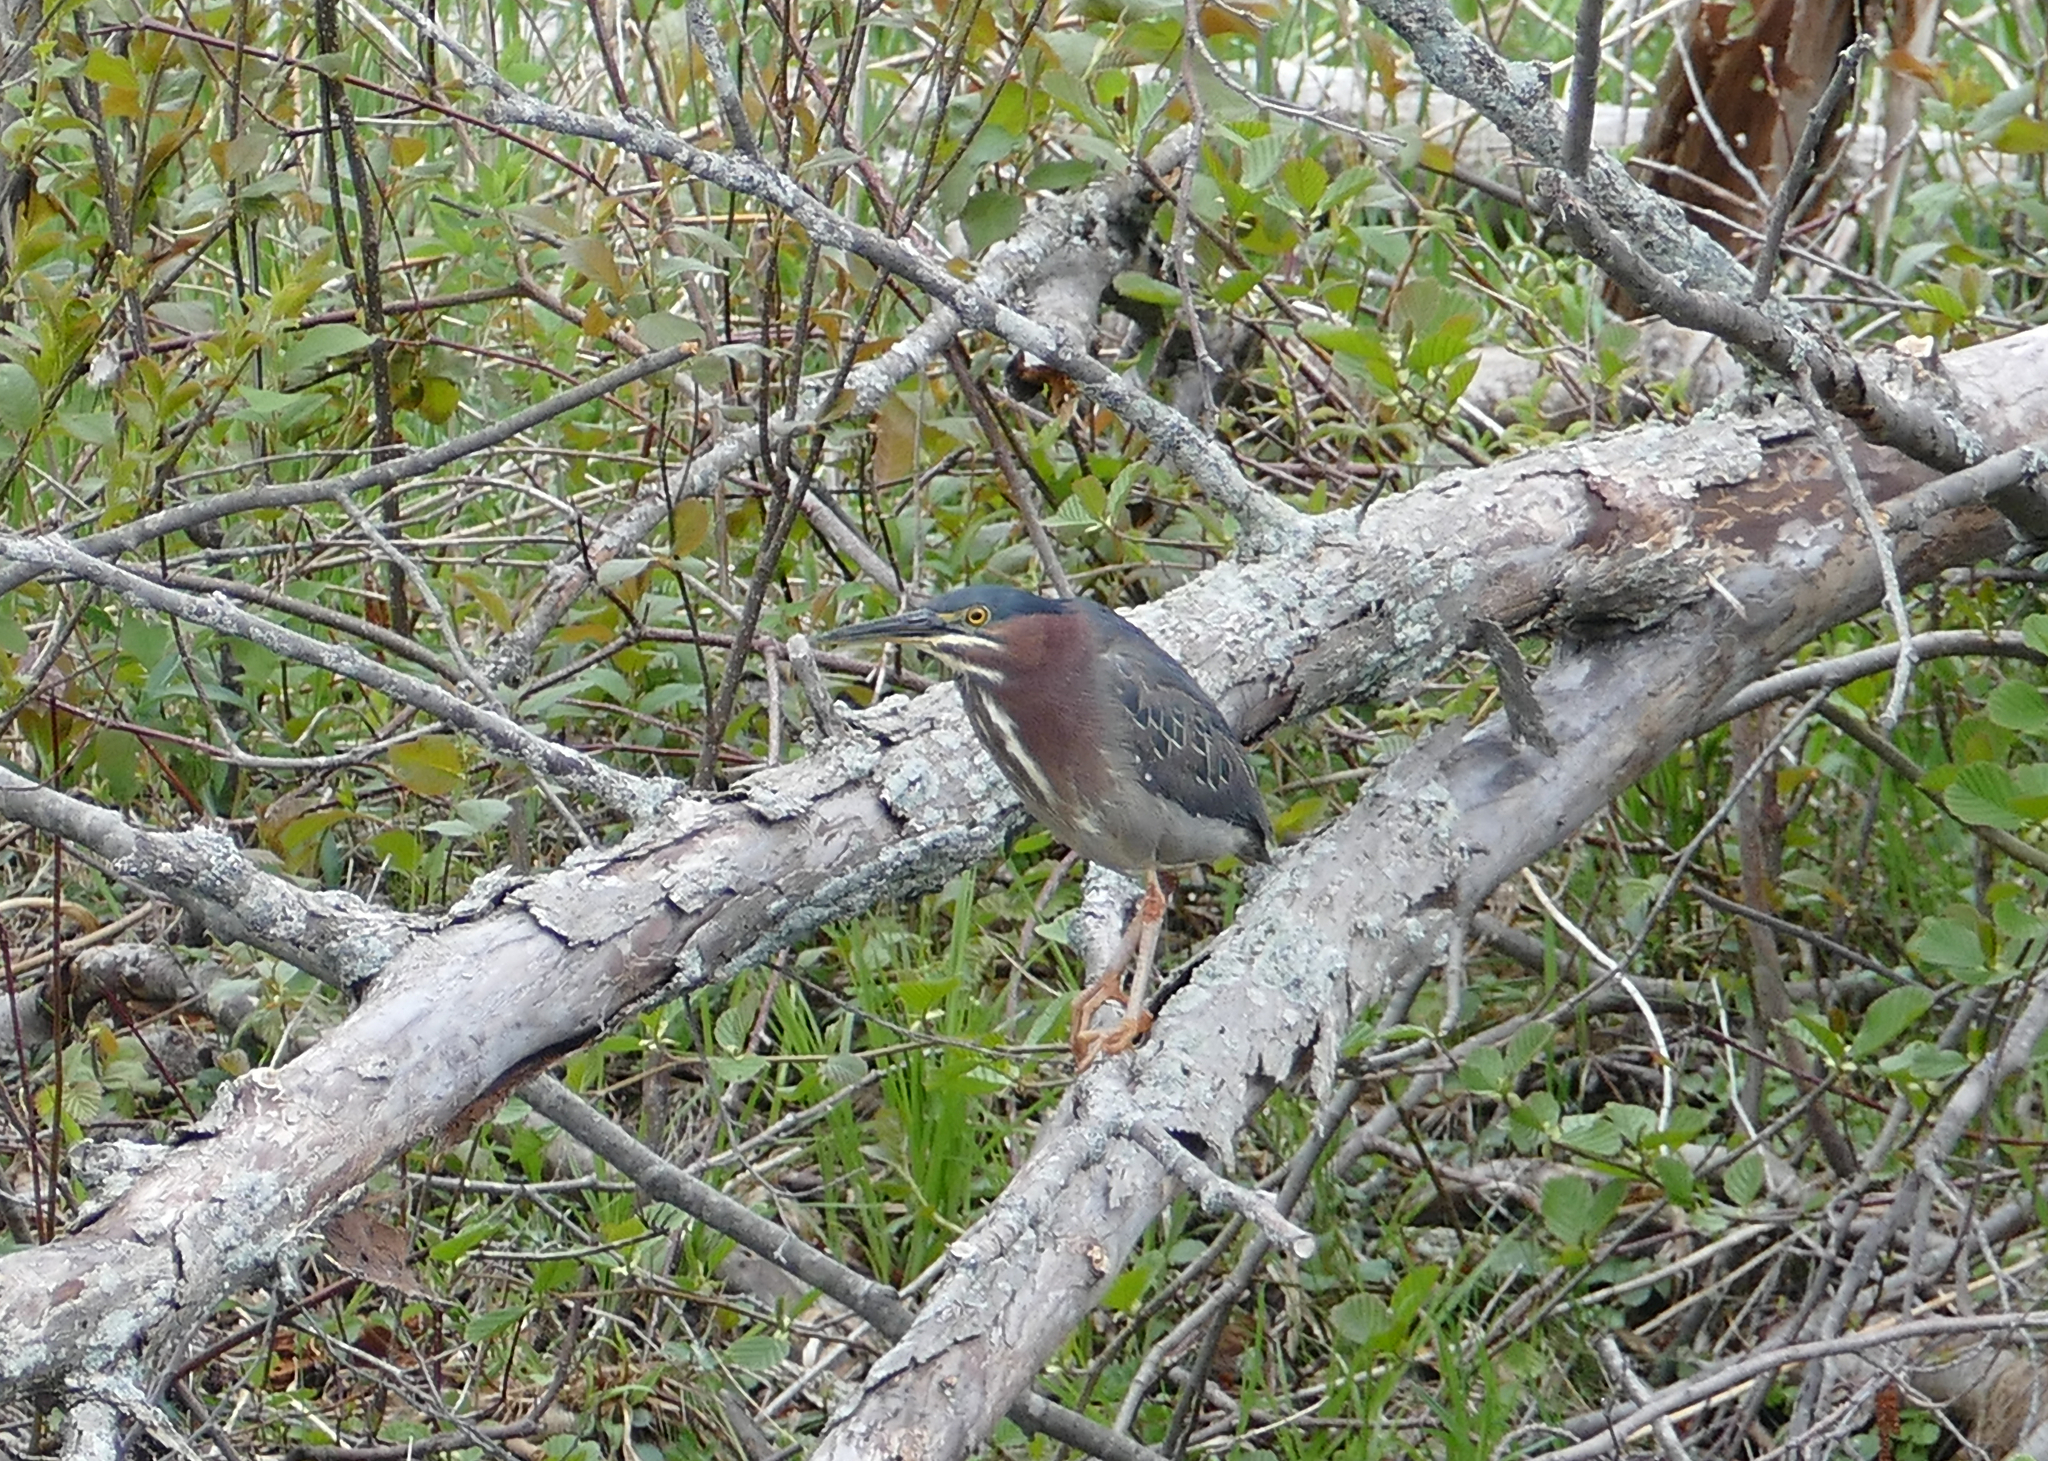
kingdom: Animalia
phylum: Chordata
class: Aves
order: Pelecaniformes
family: Ardeidae
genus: Butorides
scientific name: Butorides virescens
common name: Green heron
